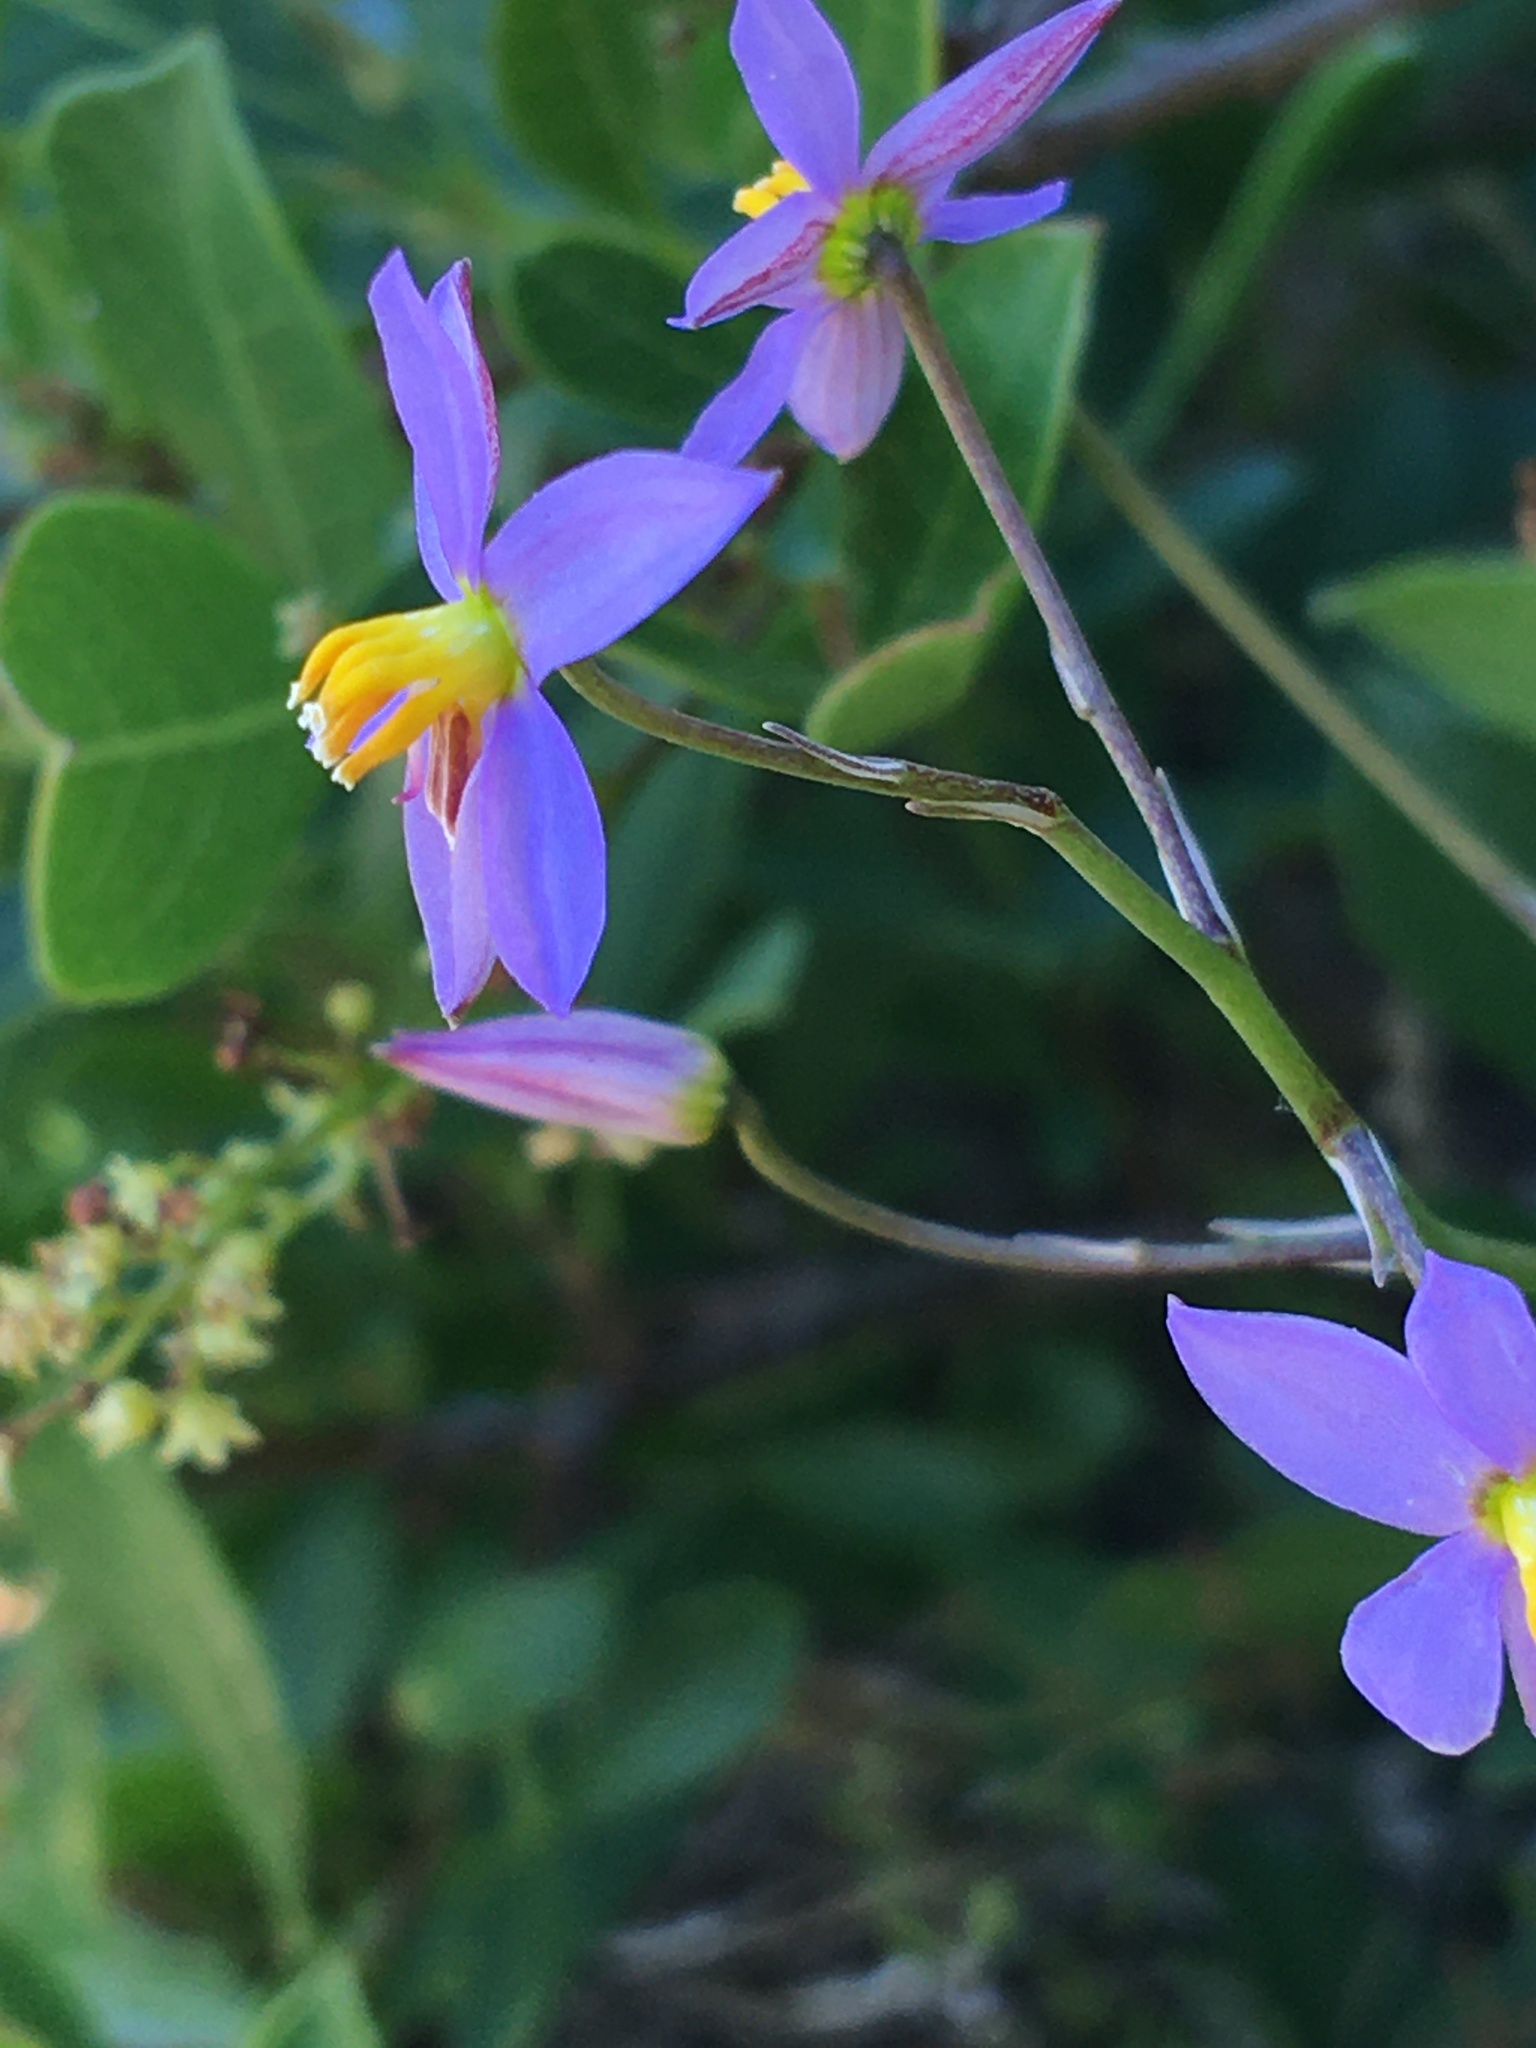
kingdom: Plantae
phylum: Tracheophyta
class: Liliopsida
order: Asparagales
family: Tecophilaeaceae
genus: Cyanella
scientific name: Cyanella hyacinthoides
